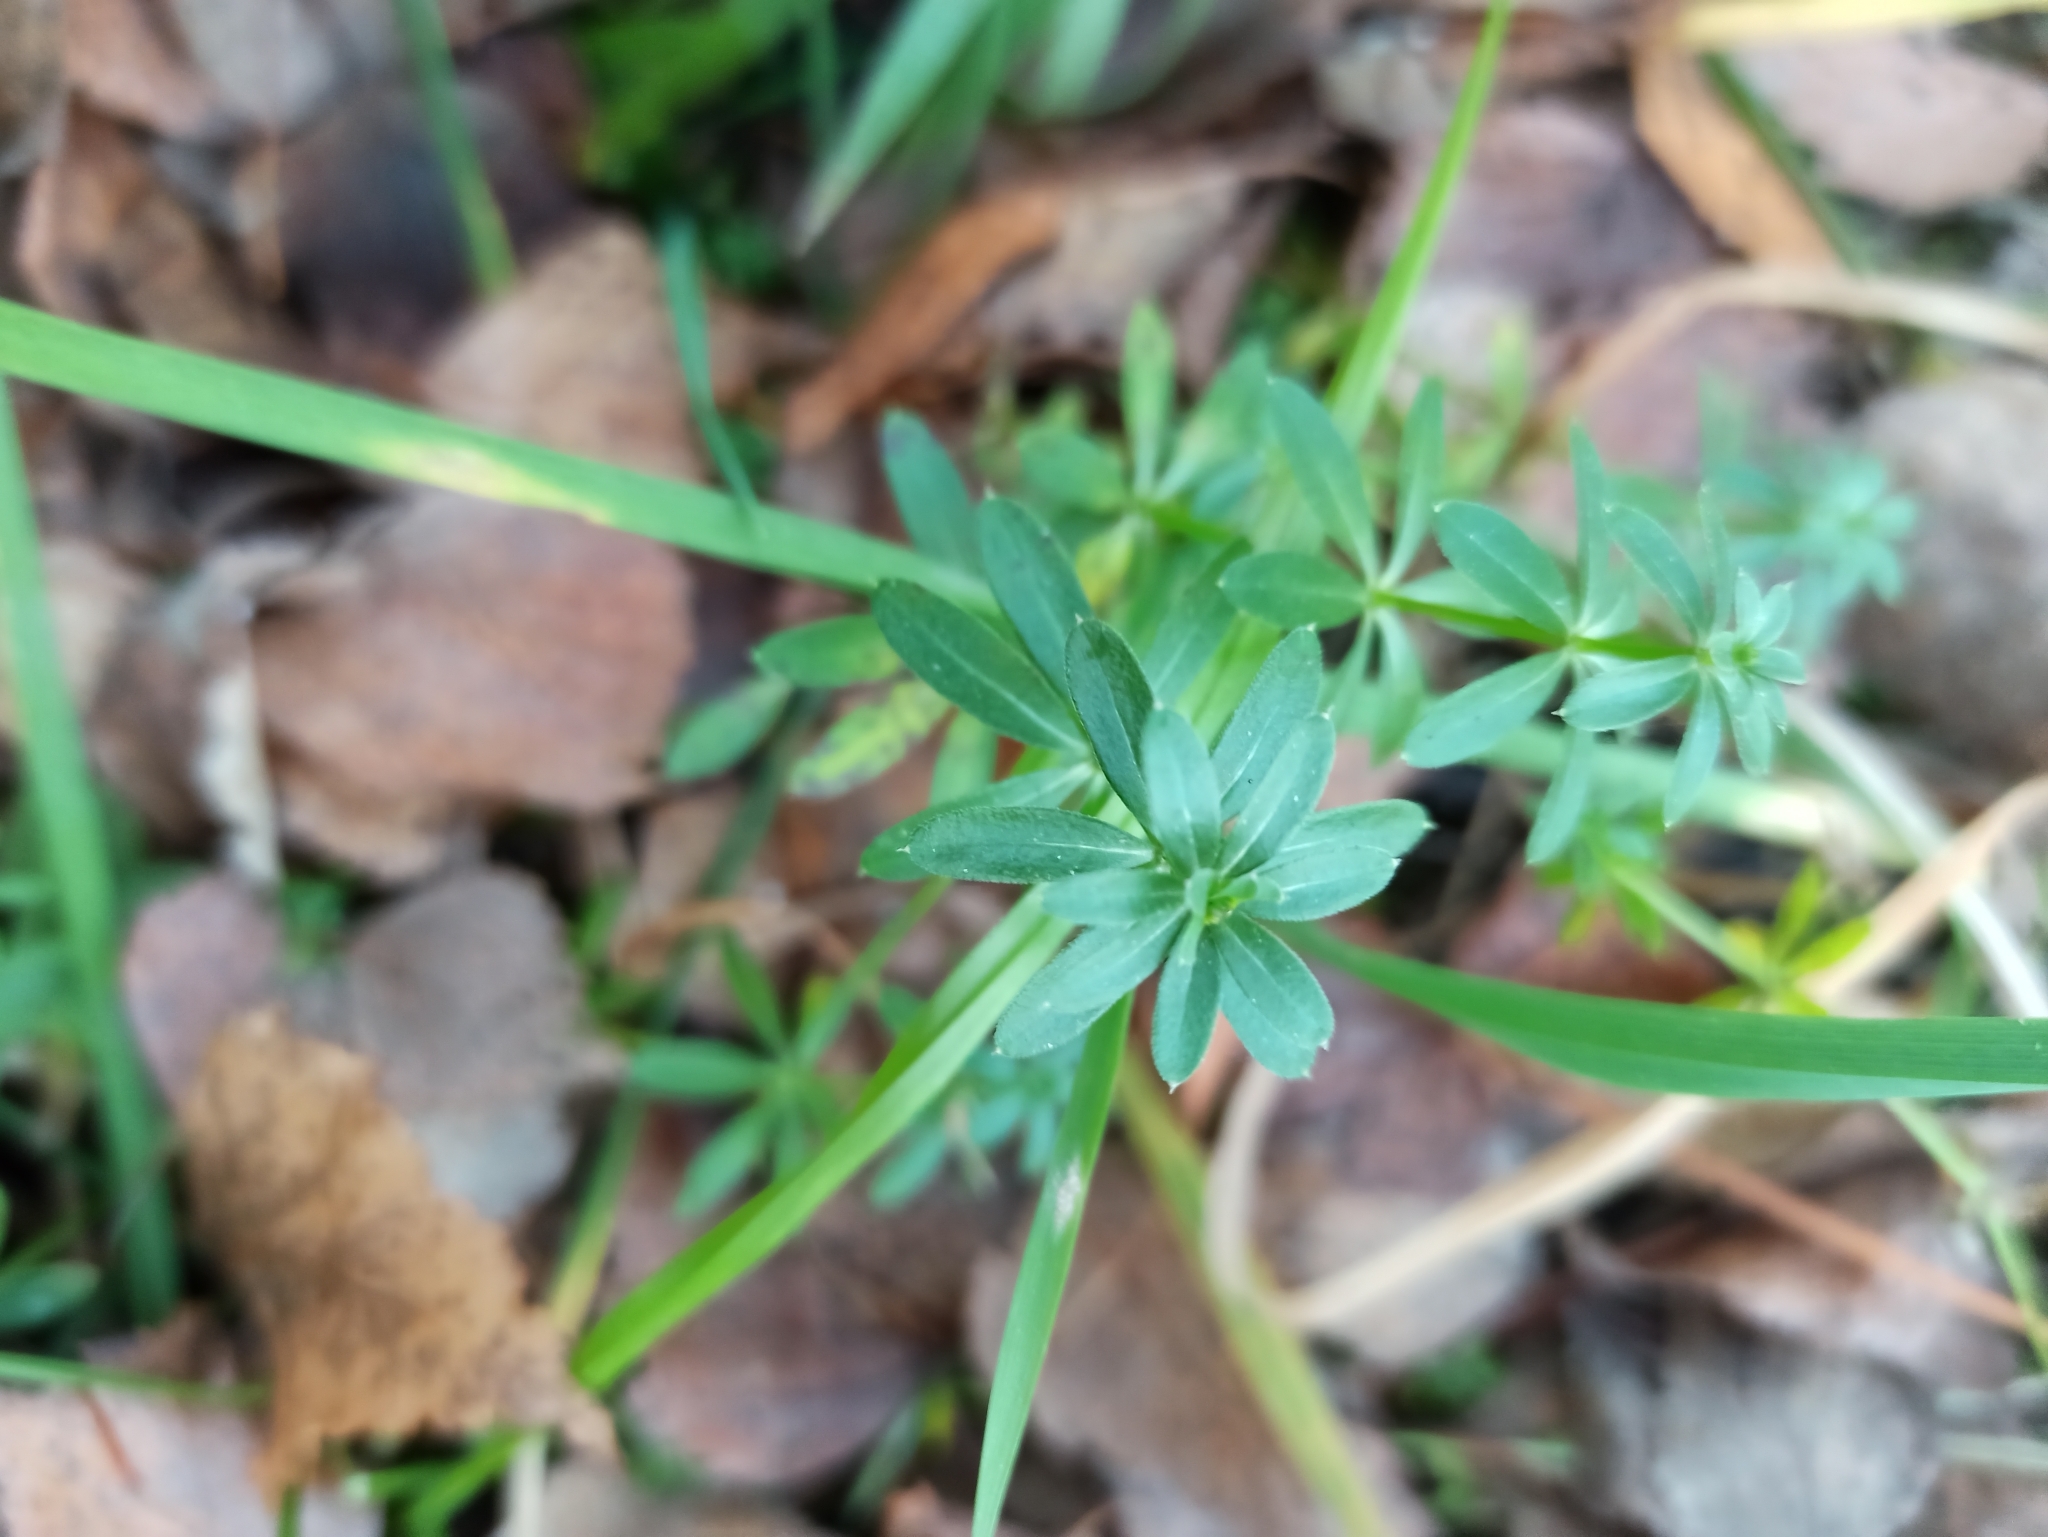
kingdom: Plantae
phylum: Tracheophyta
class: Magnoliopsida
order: Gentianales
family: Rubiaceae
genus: Galium
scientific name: Galium mollugo
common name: Hedge bedstraw
